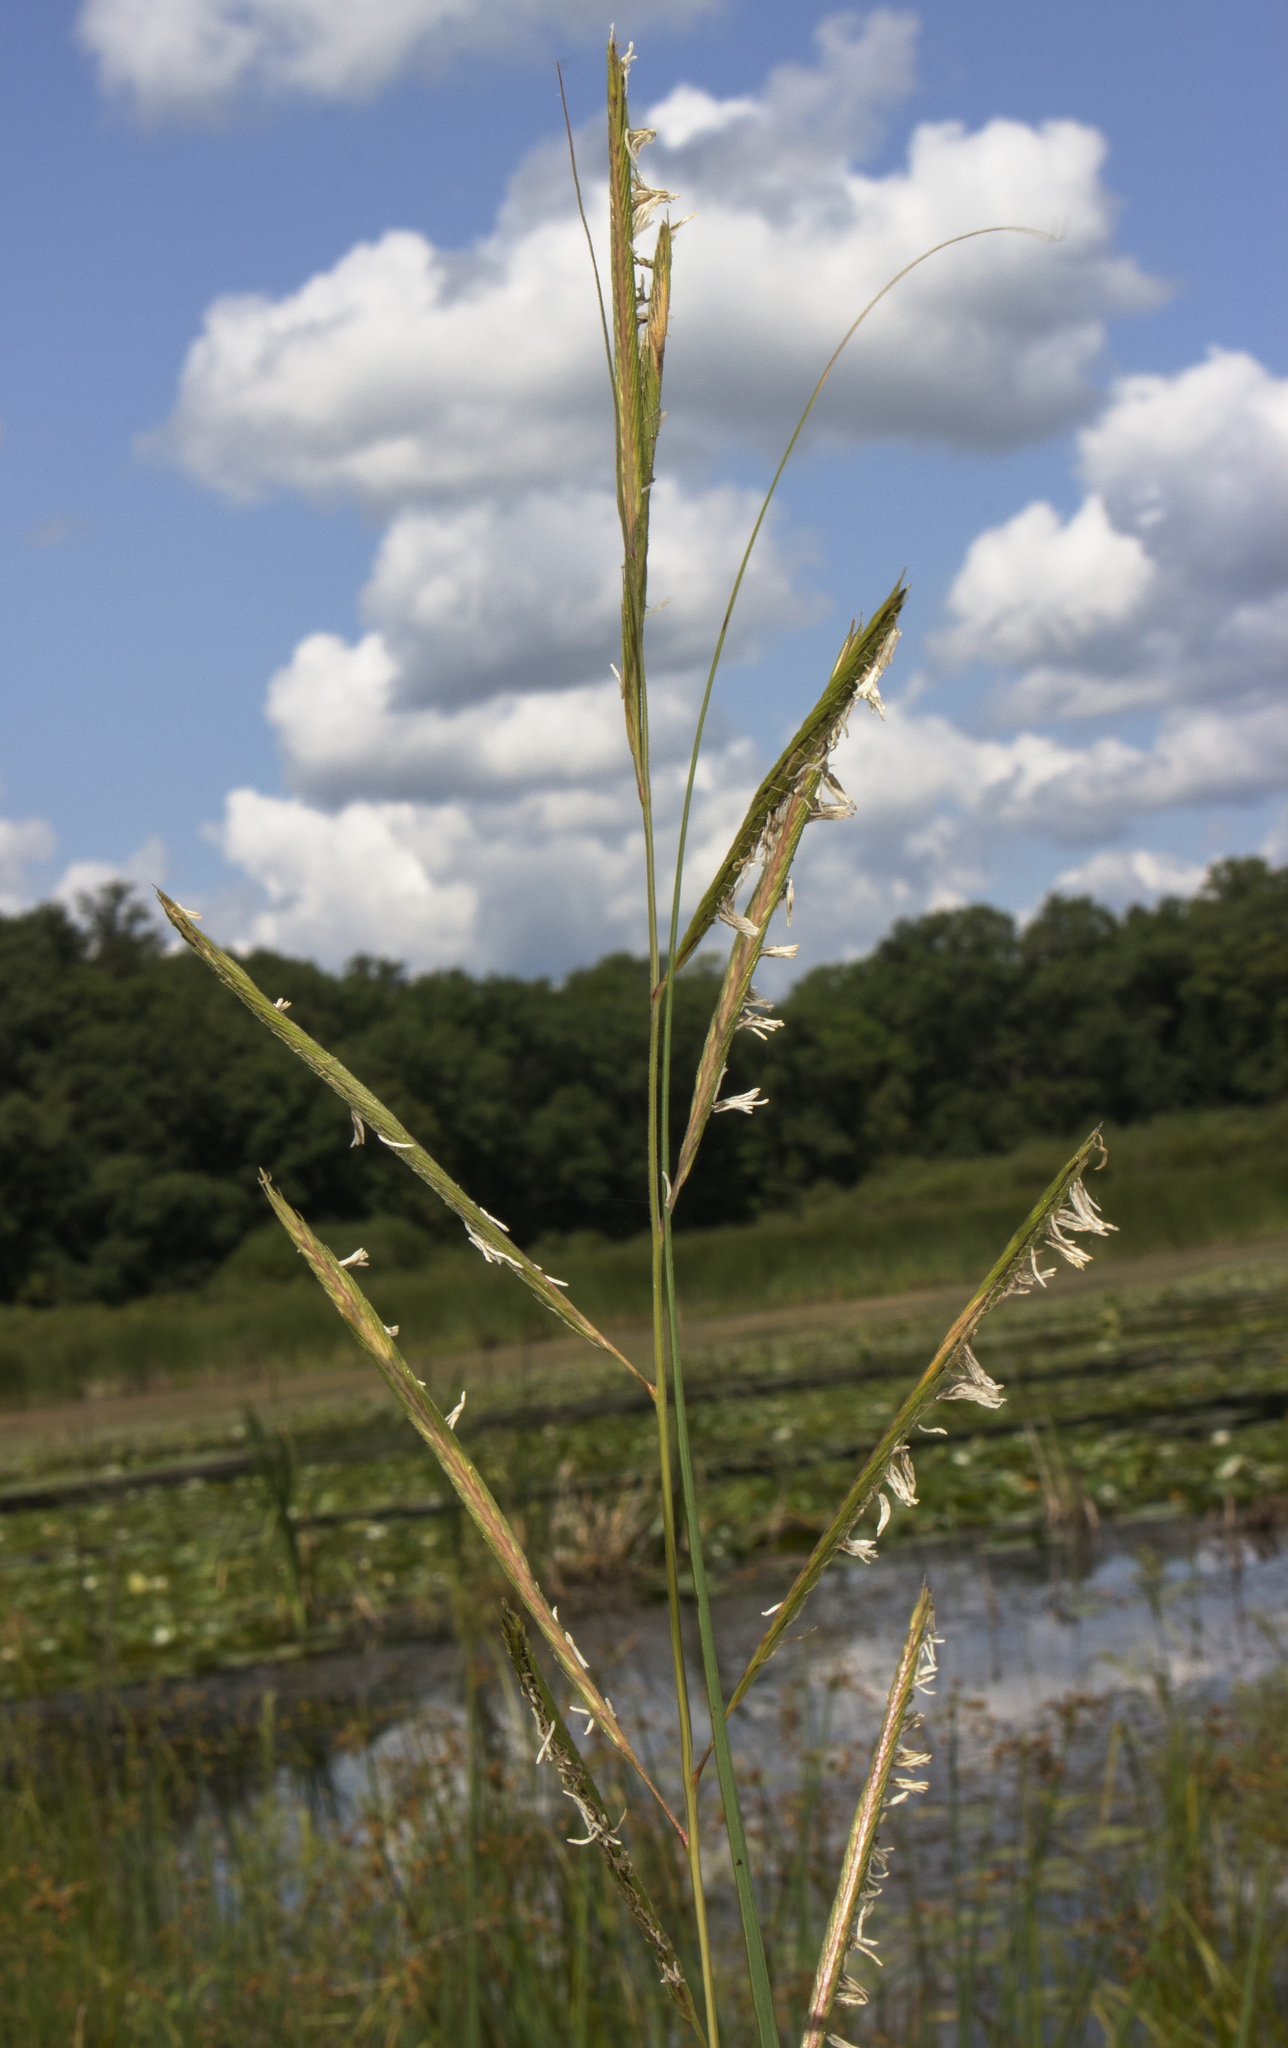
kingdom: Plantae
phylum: Tracheophyta
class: Liliopsida
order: Poales
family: Poaceae
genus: Sporobolus
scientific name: Sporobolus michauxianus
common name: Freshwater cordgrass
